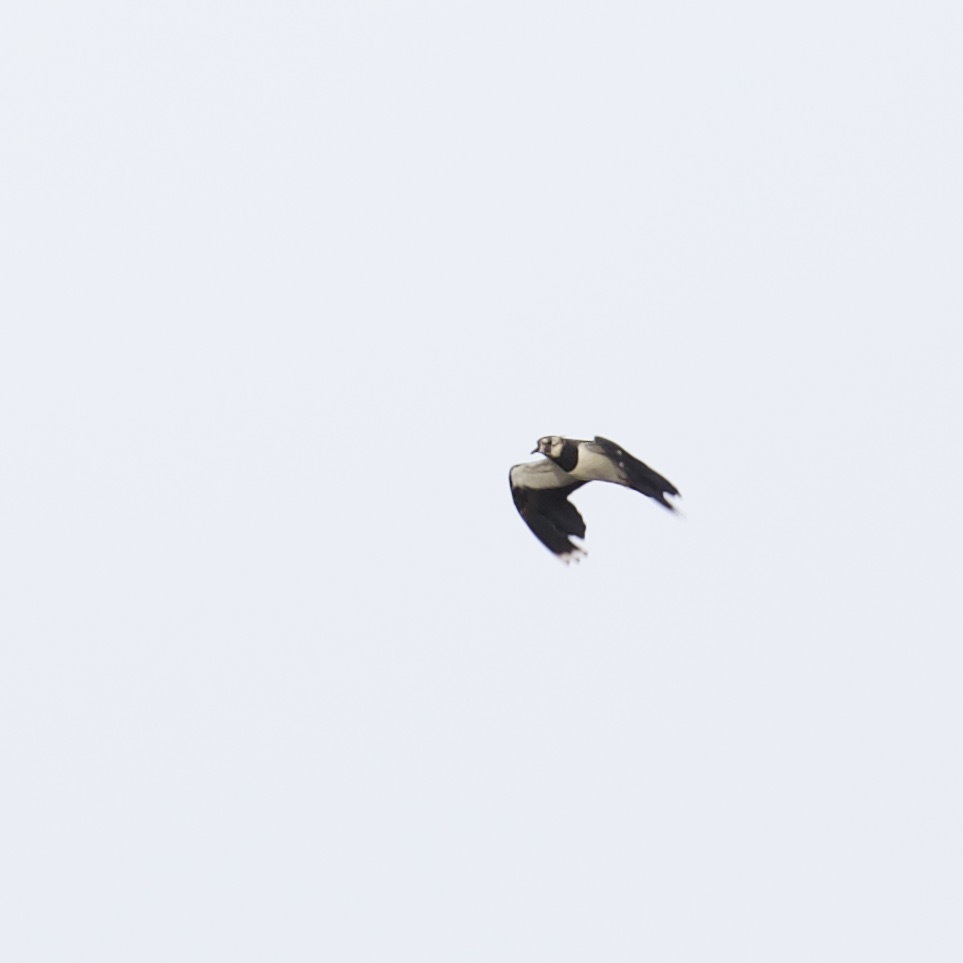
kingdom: Animalia
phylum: Chordata
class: Aves
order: Charadriiformes
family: Charadriidae
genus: Vanellus
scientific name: Vanellus vanellus
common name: Northern lapwing
